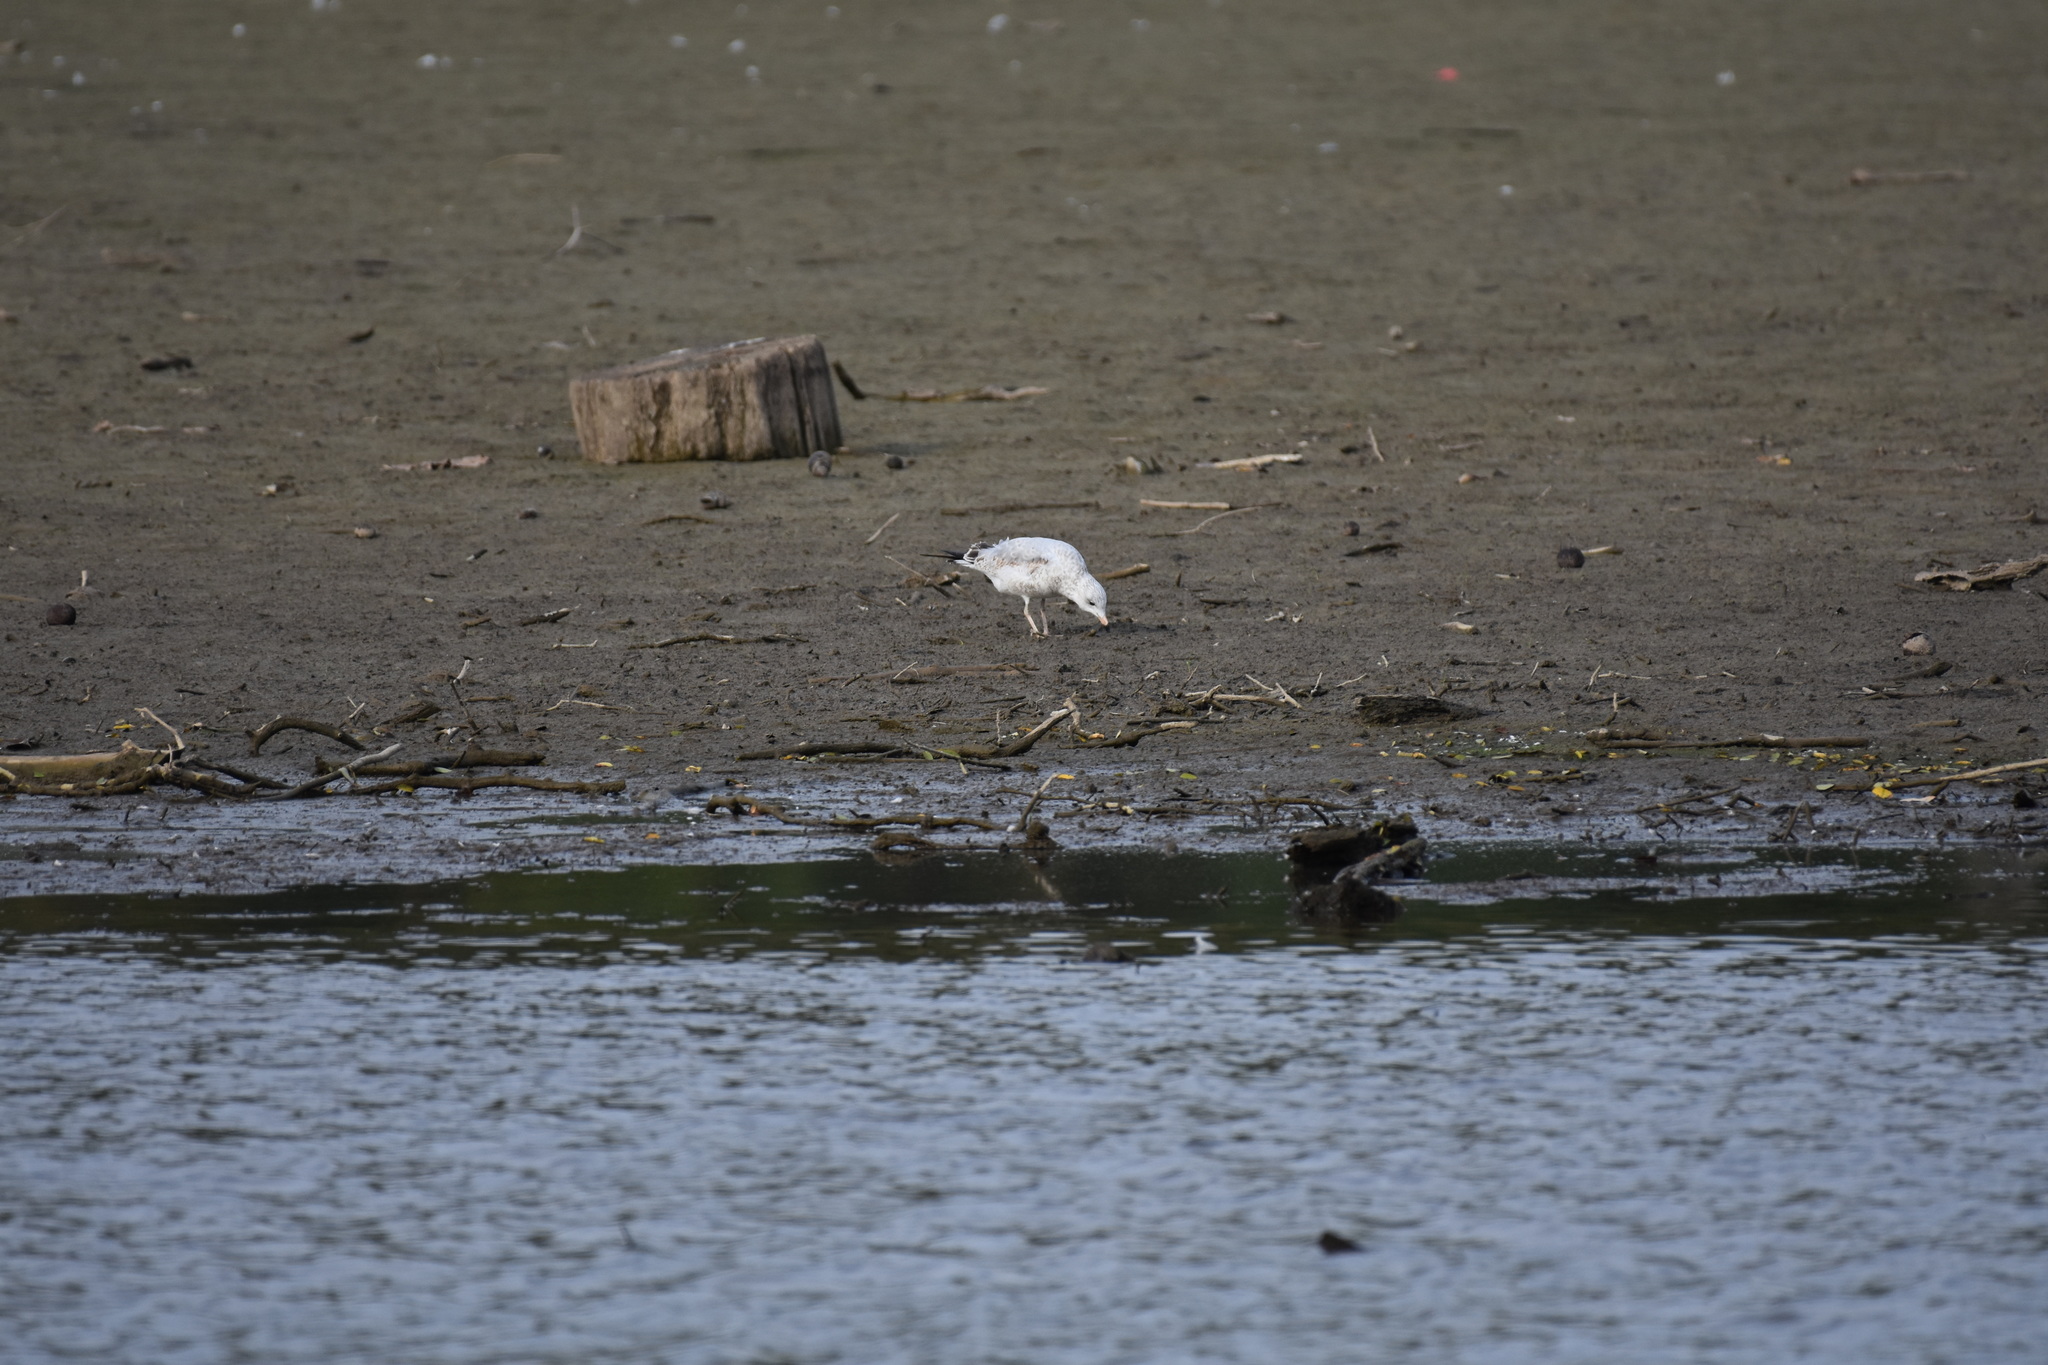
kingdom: Animalia
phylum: Chordata
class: Aves
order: Charadriiformes
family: Laridae
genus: Larus
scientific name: Larus delawarensis
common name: Ring-billed gull
